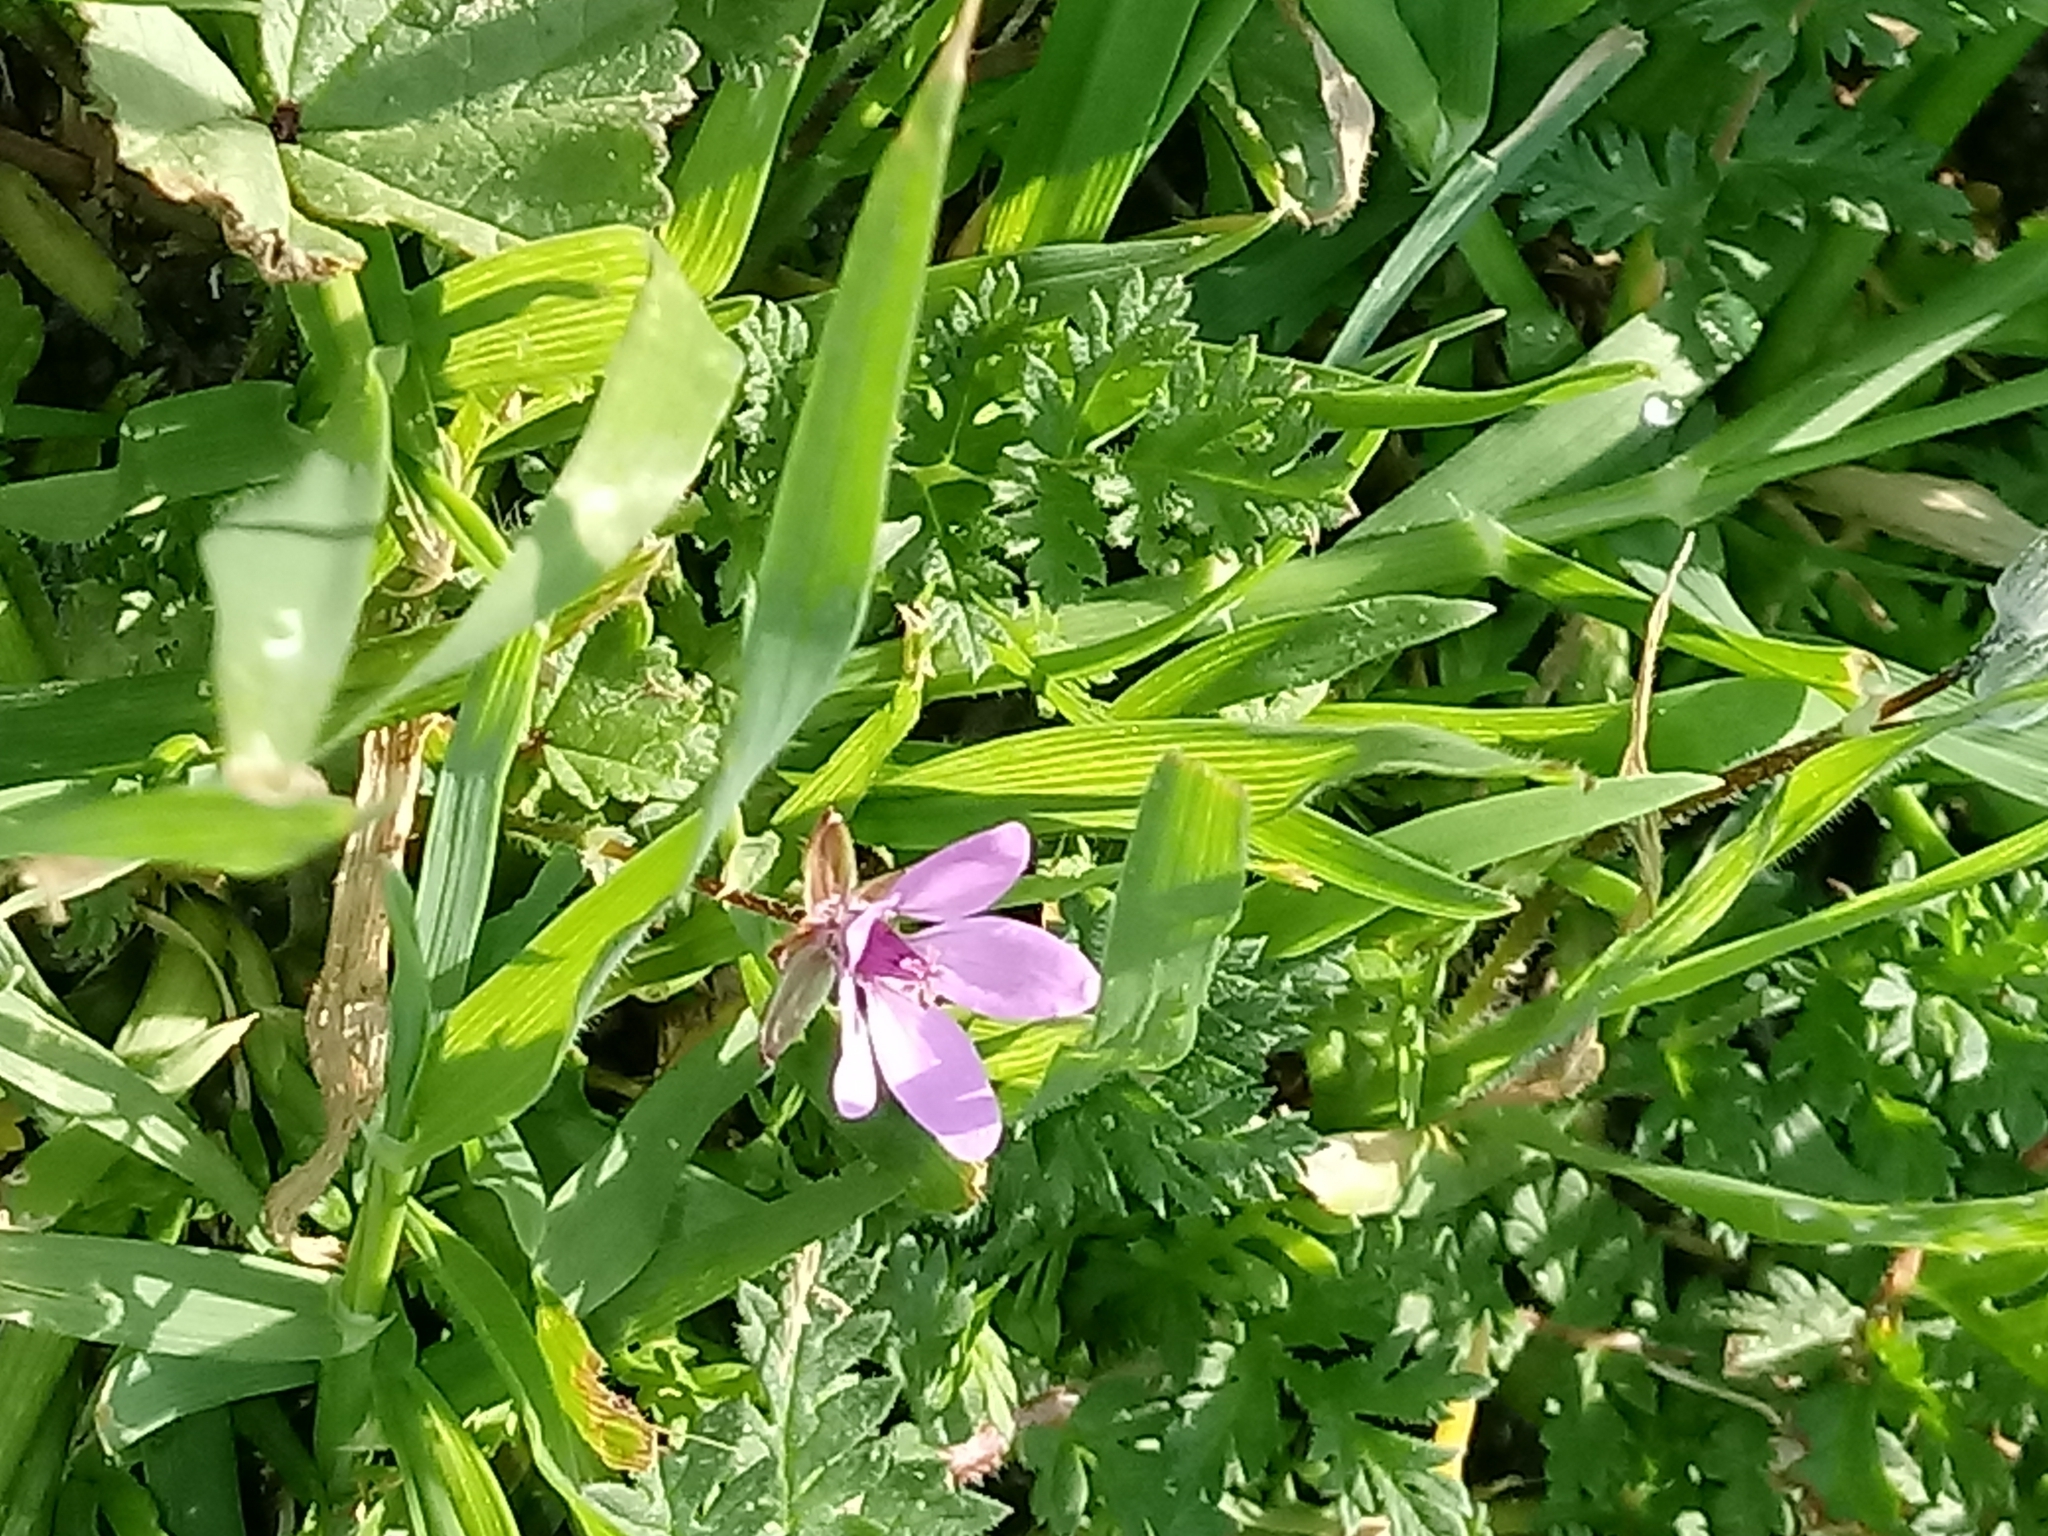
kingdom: Plantae
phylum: Tracheophyta
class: Magnoliopsida
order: Geraniales
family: Geraniaceae
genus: Erodium
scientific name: Erodium cicutarium
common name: Common stork's-bill
